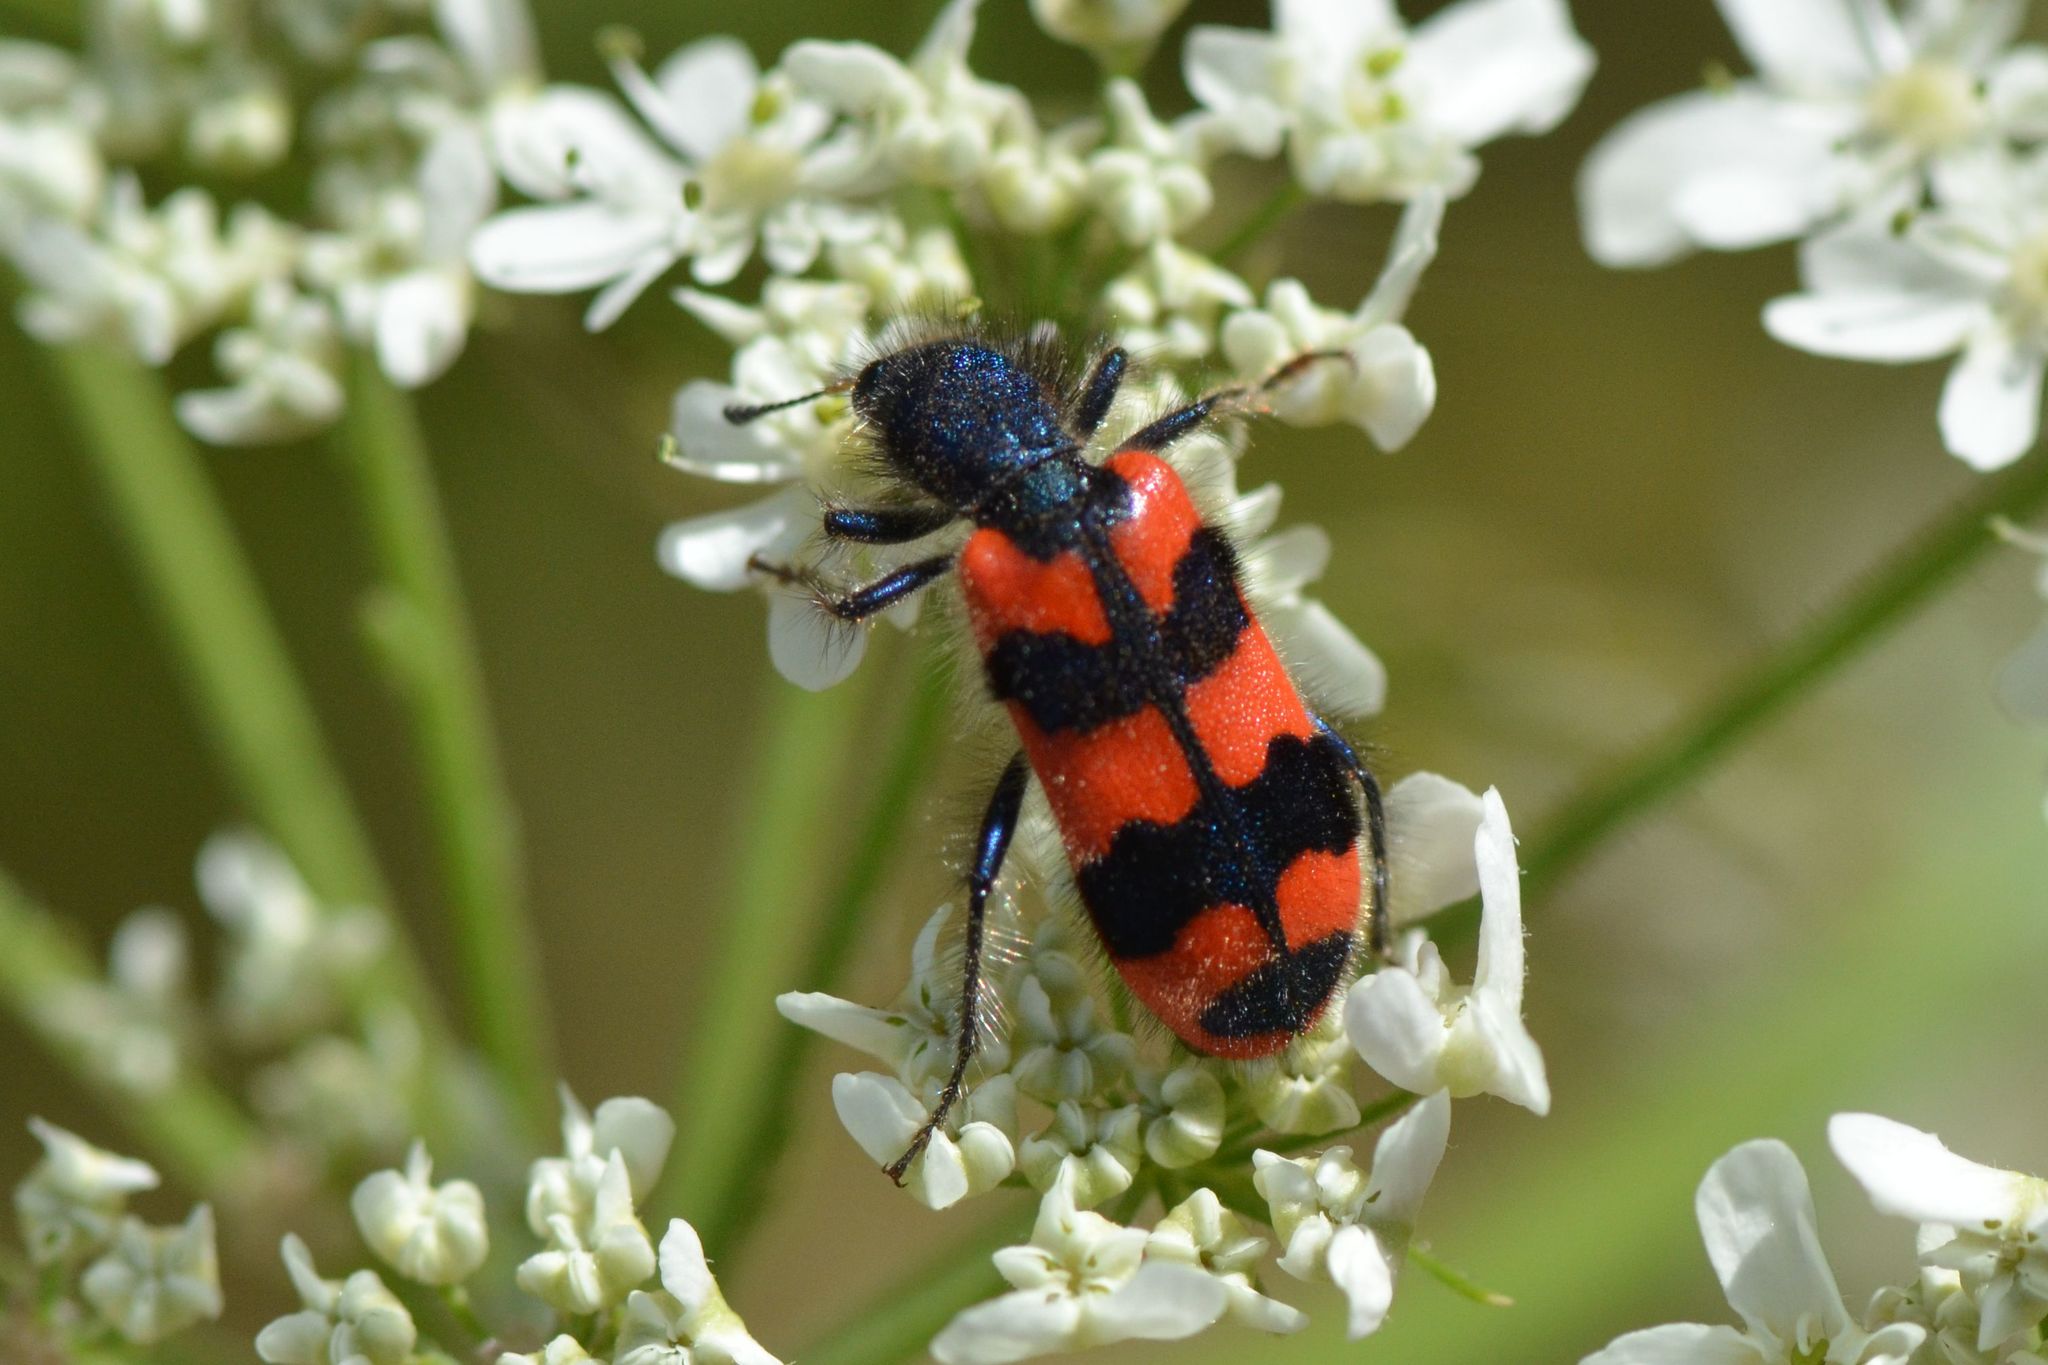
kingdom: Animalia
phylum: Arthropoda
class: Insecta
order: Coleoptera
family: Cleridae
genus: Trichodes
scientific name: Trichodes alvearius
